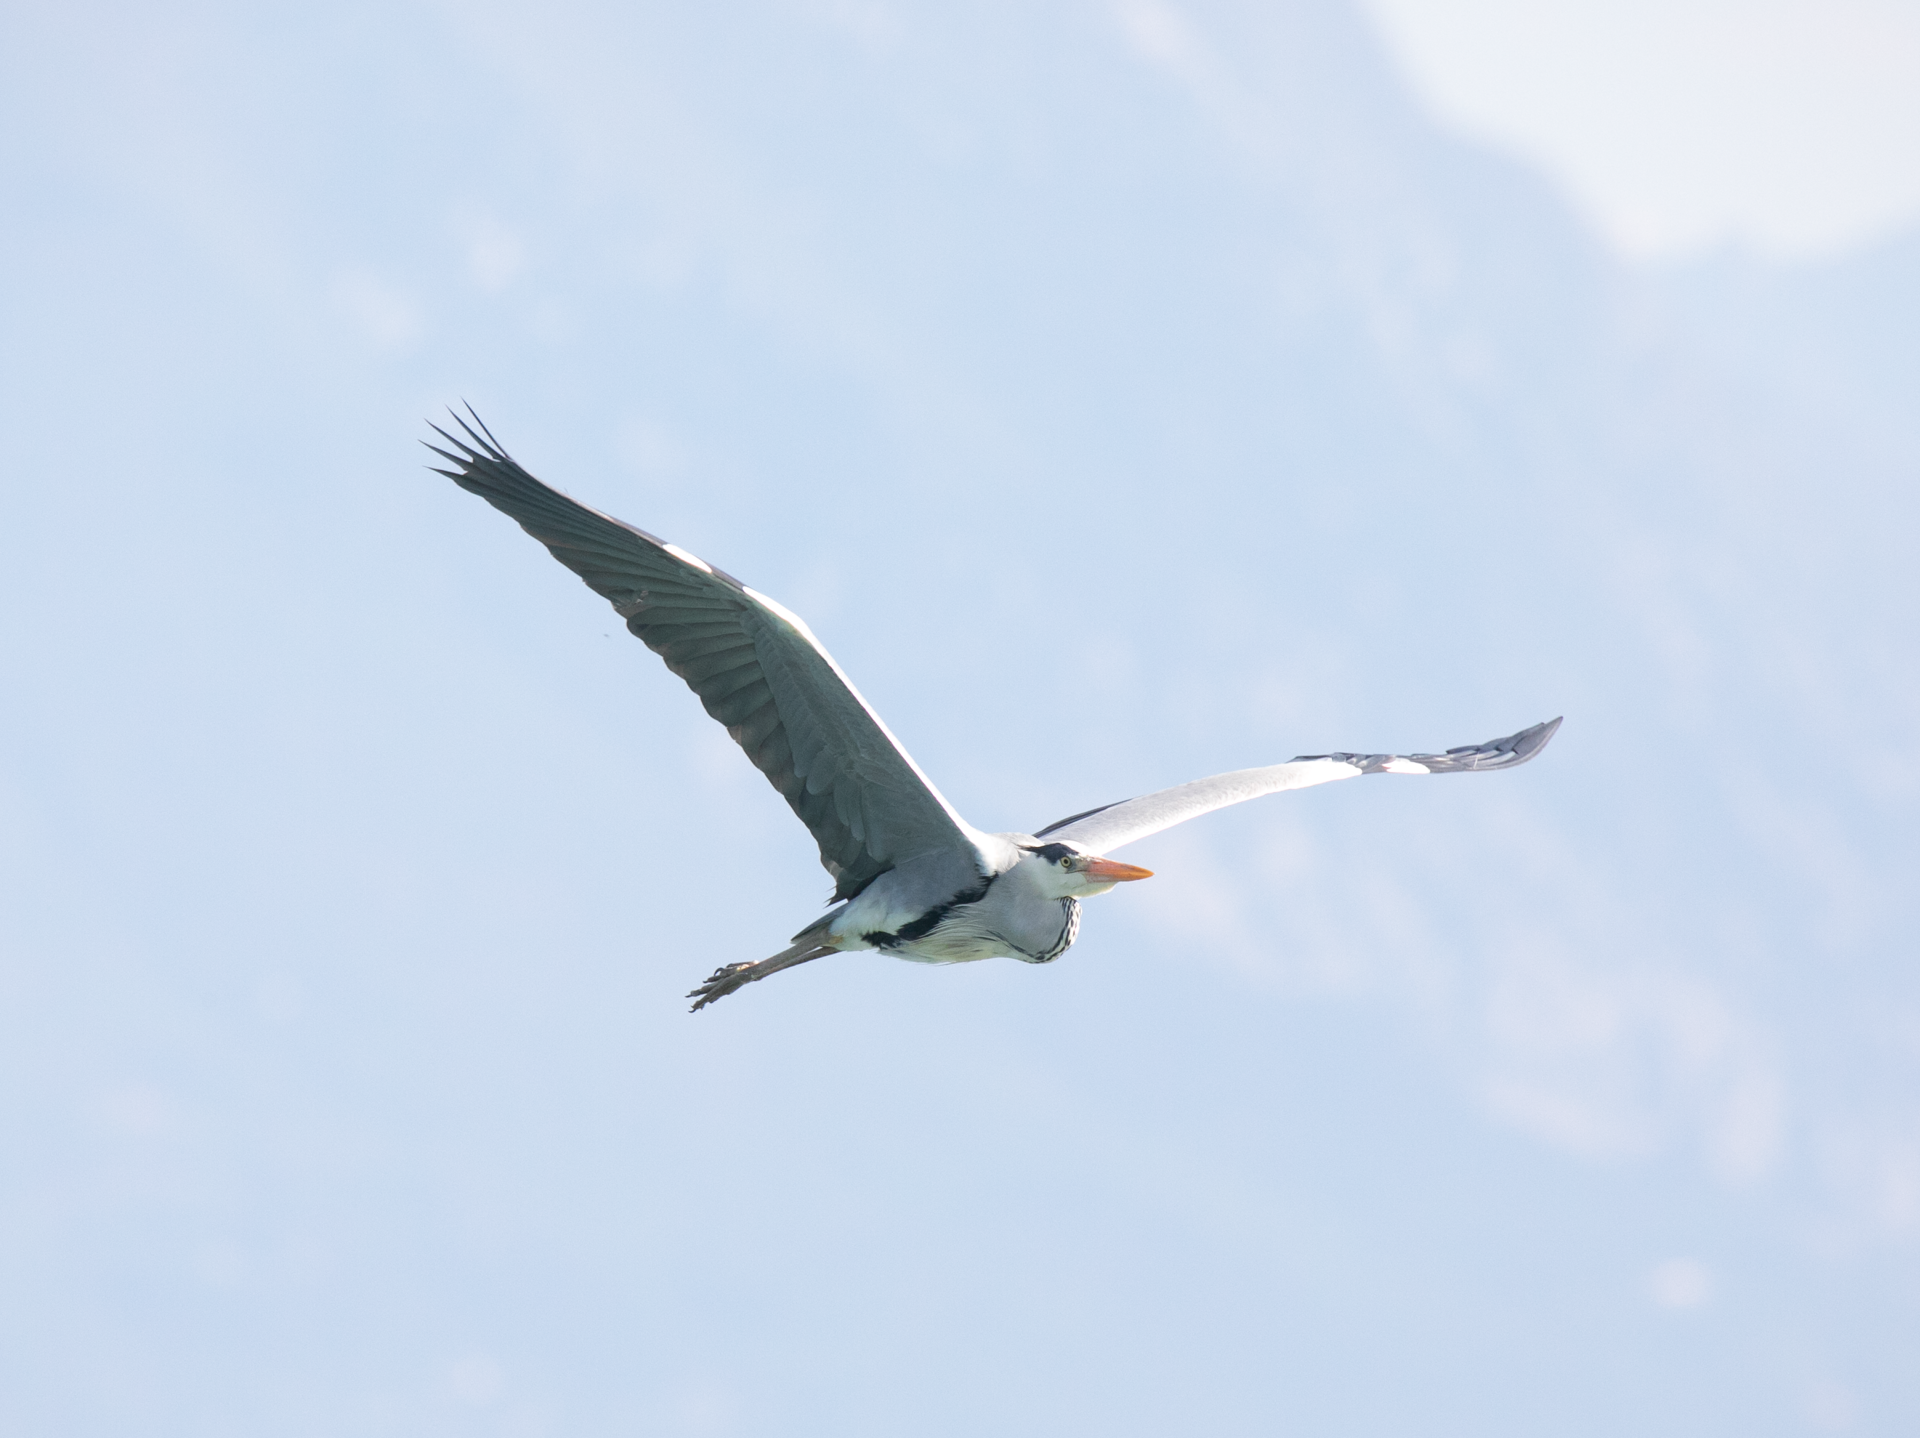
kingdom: Animalia
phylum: Chordata
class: Aves
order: Pelecaniformes
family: Ardeidae
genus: Ardea
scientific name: Ardea cinerea
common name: Grey heron
